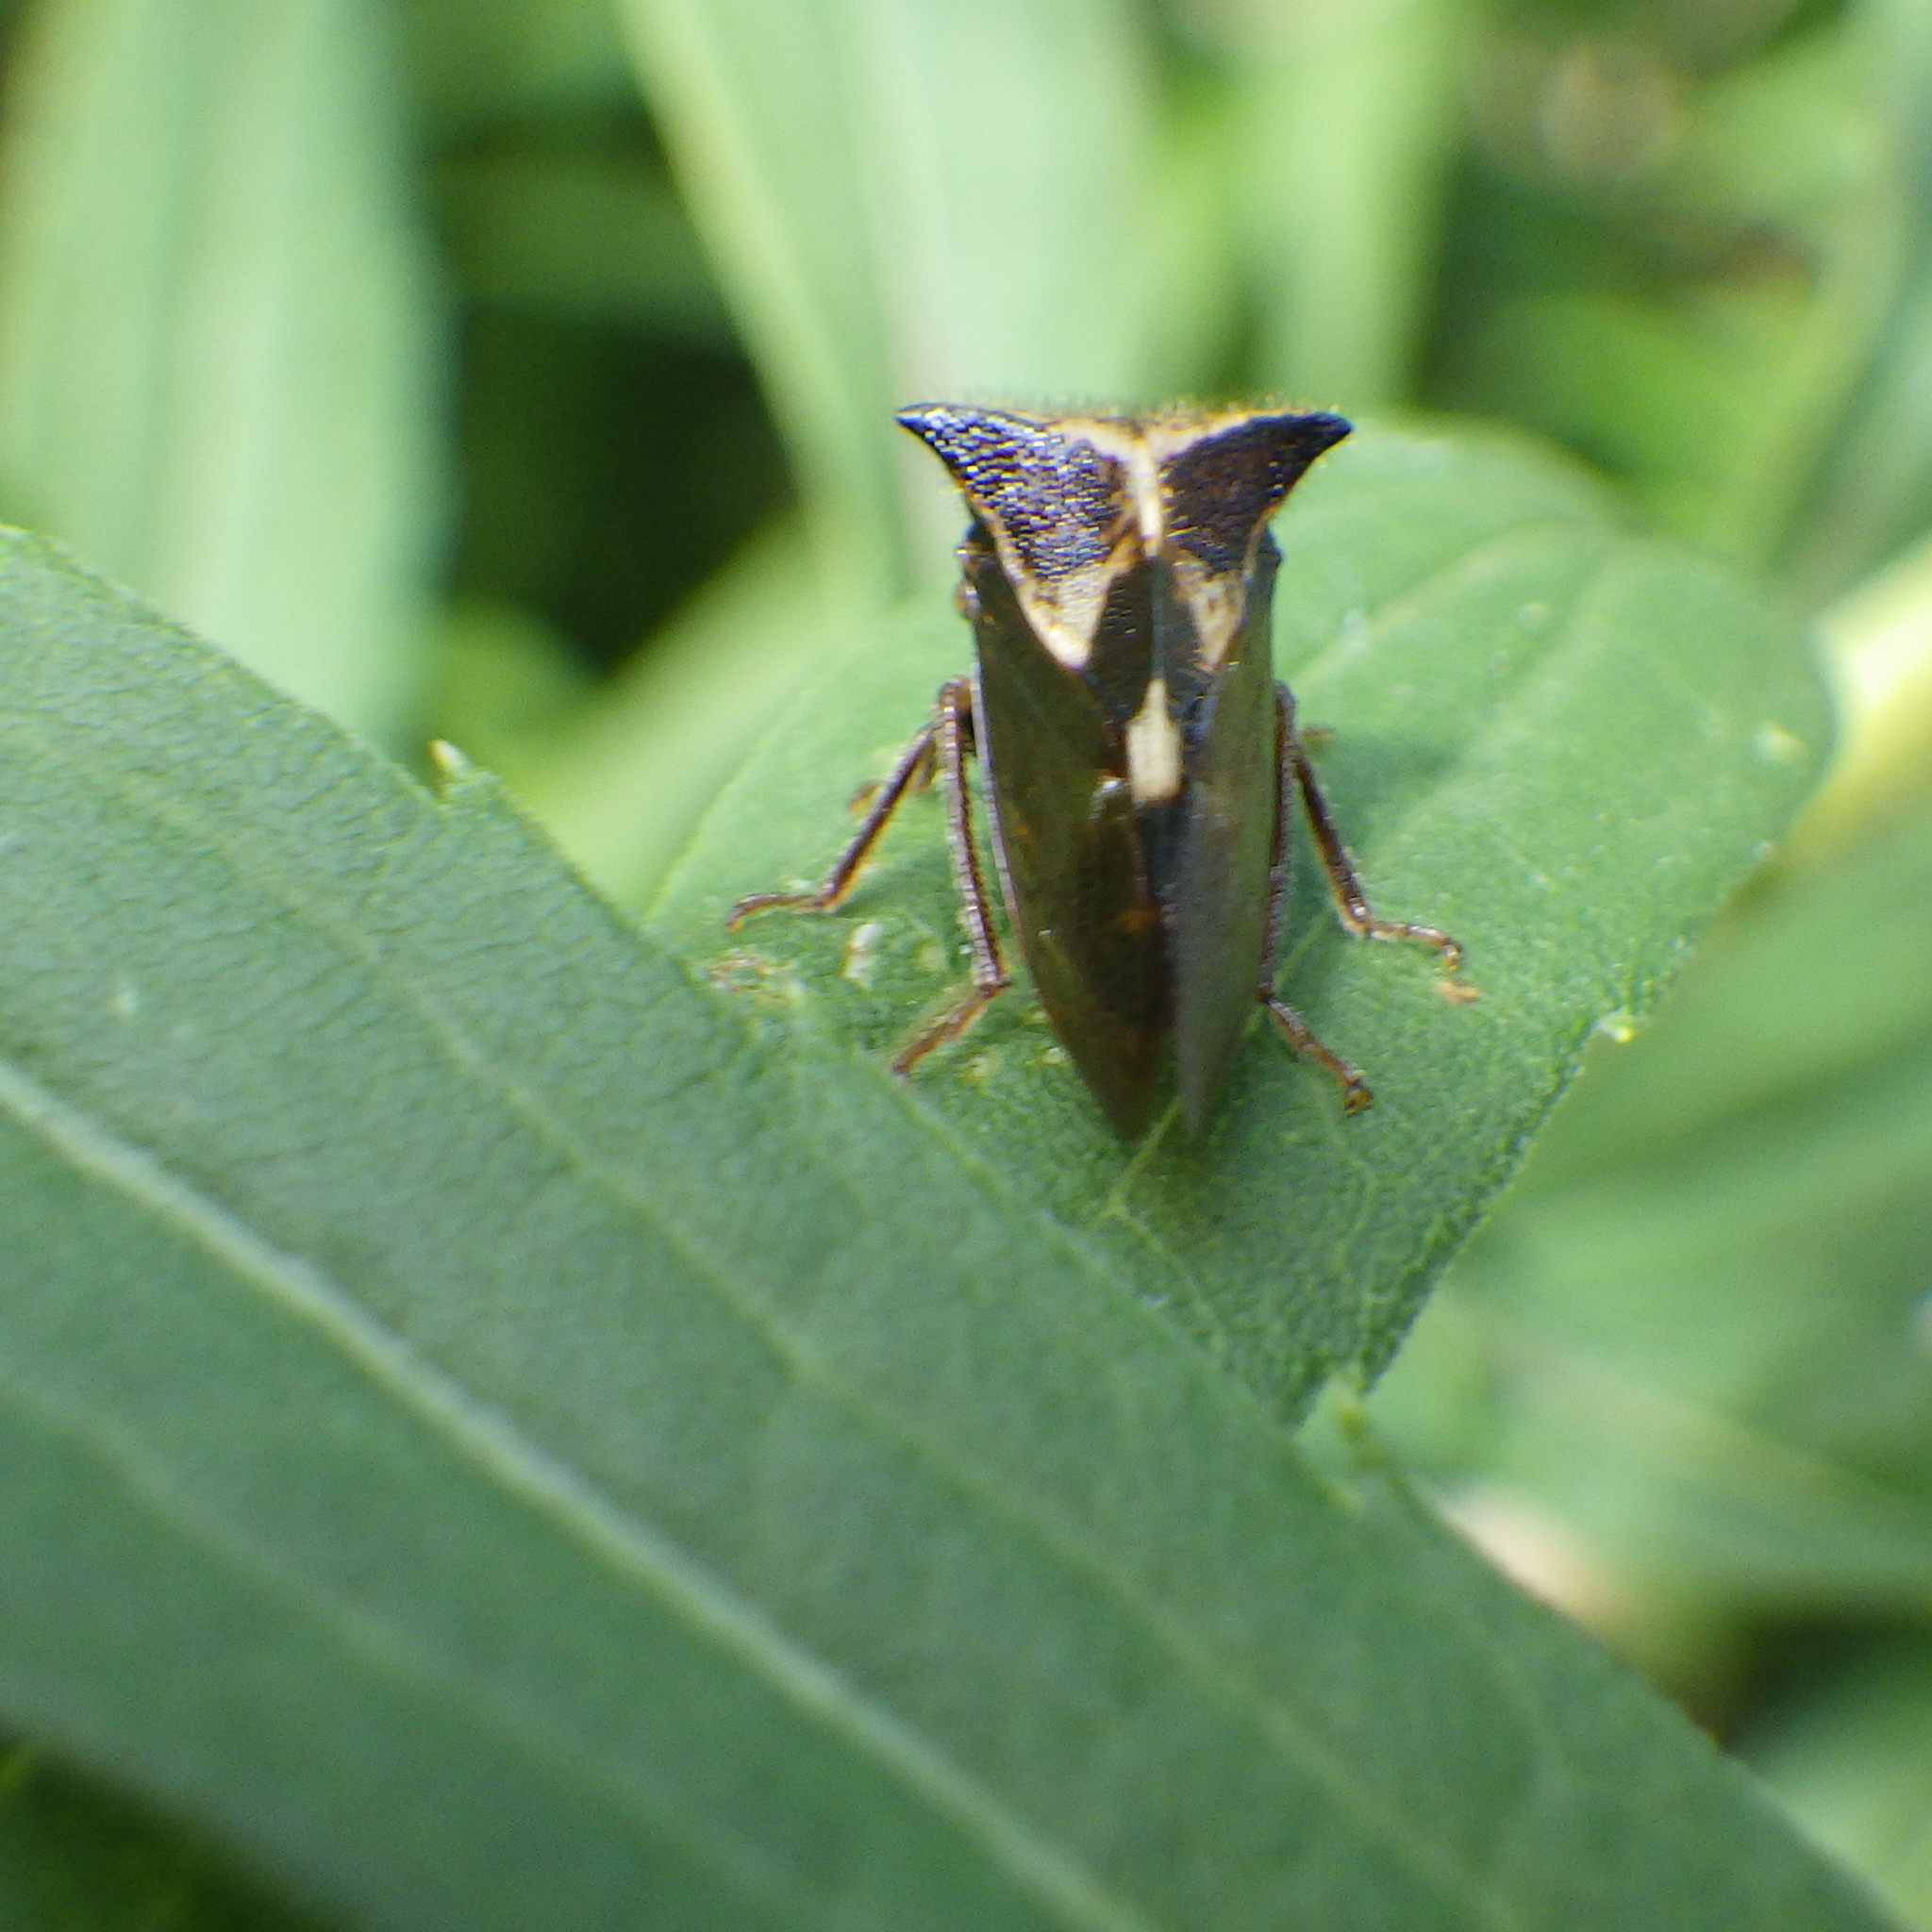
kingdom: Animalia
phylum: Arthropoda
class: Insecta
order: Hemiptera
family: Membracidae
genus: Stictocephala
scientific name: Stictocephala diceros
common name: Two-horned treehopper
